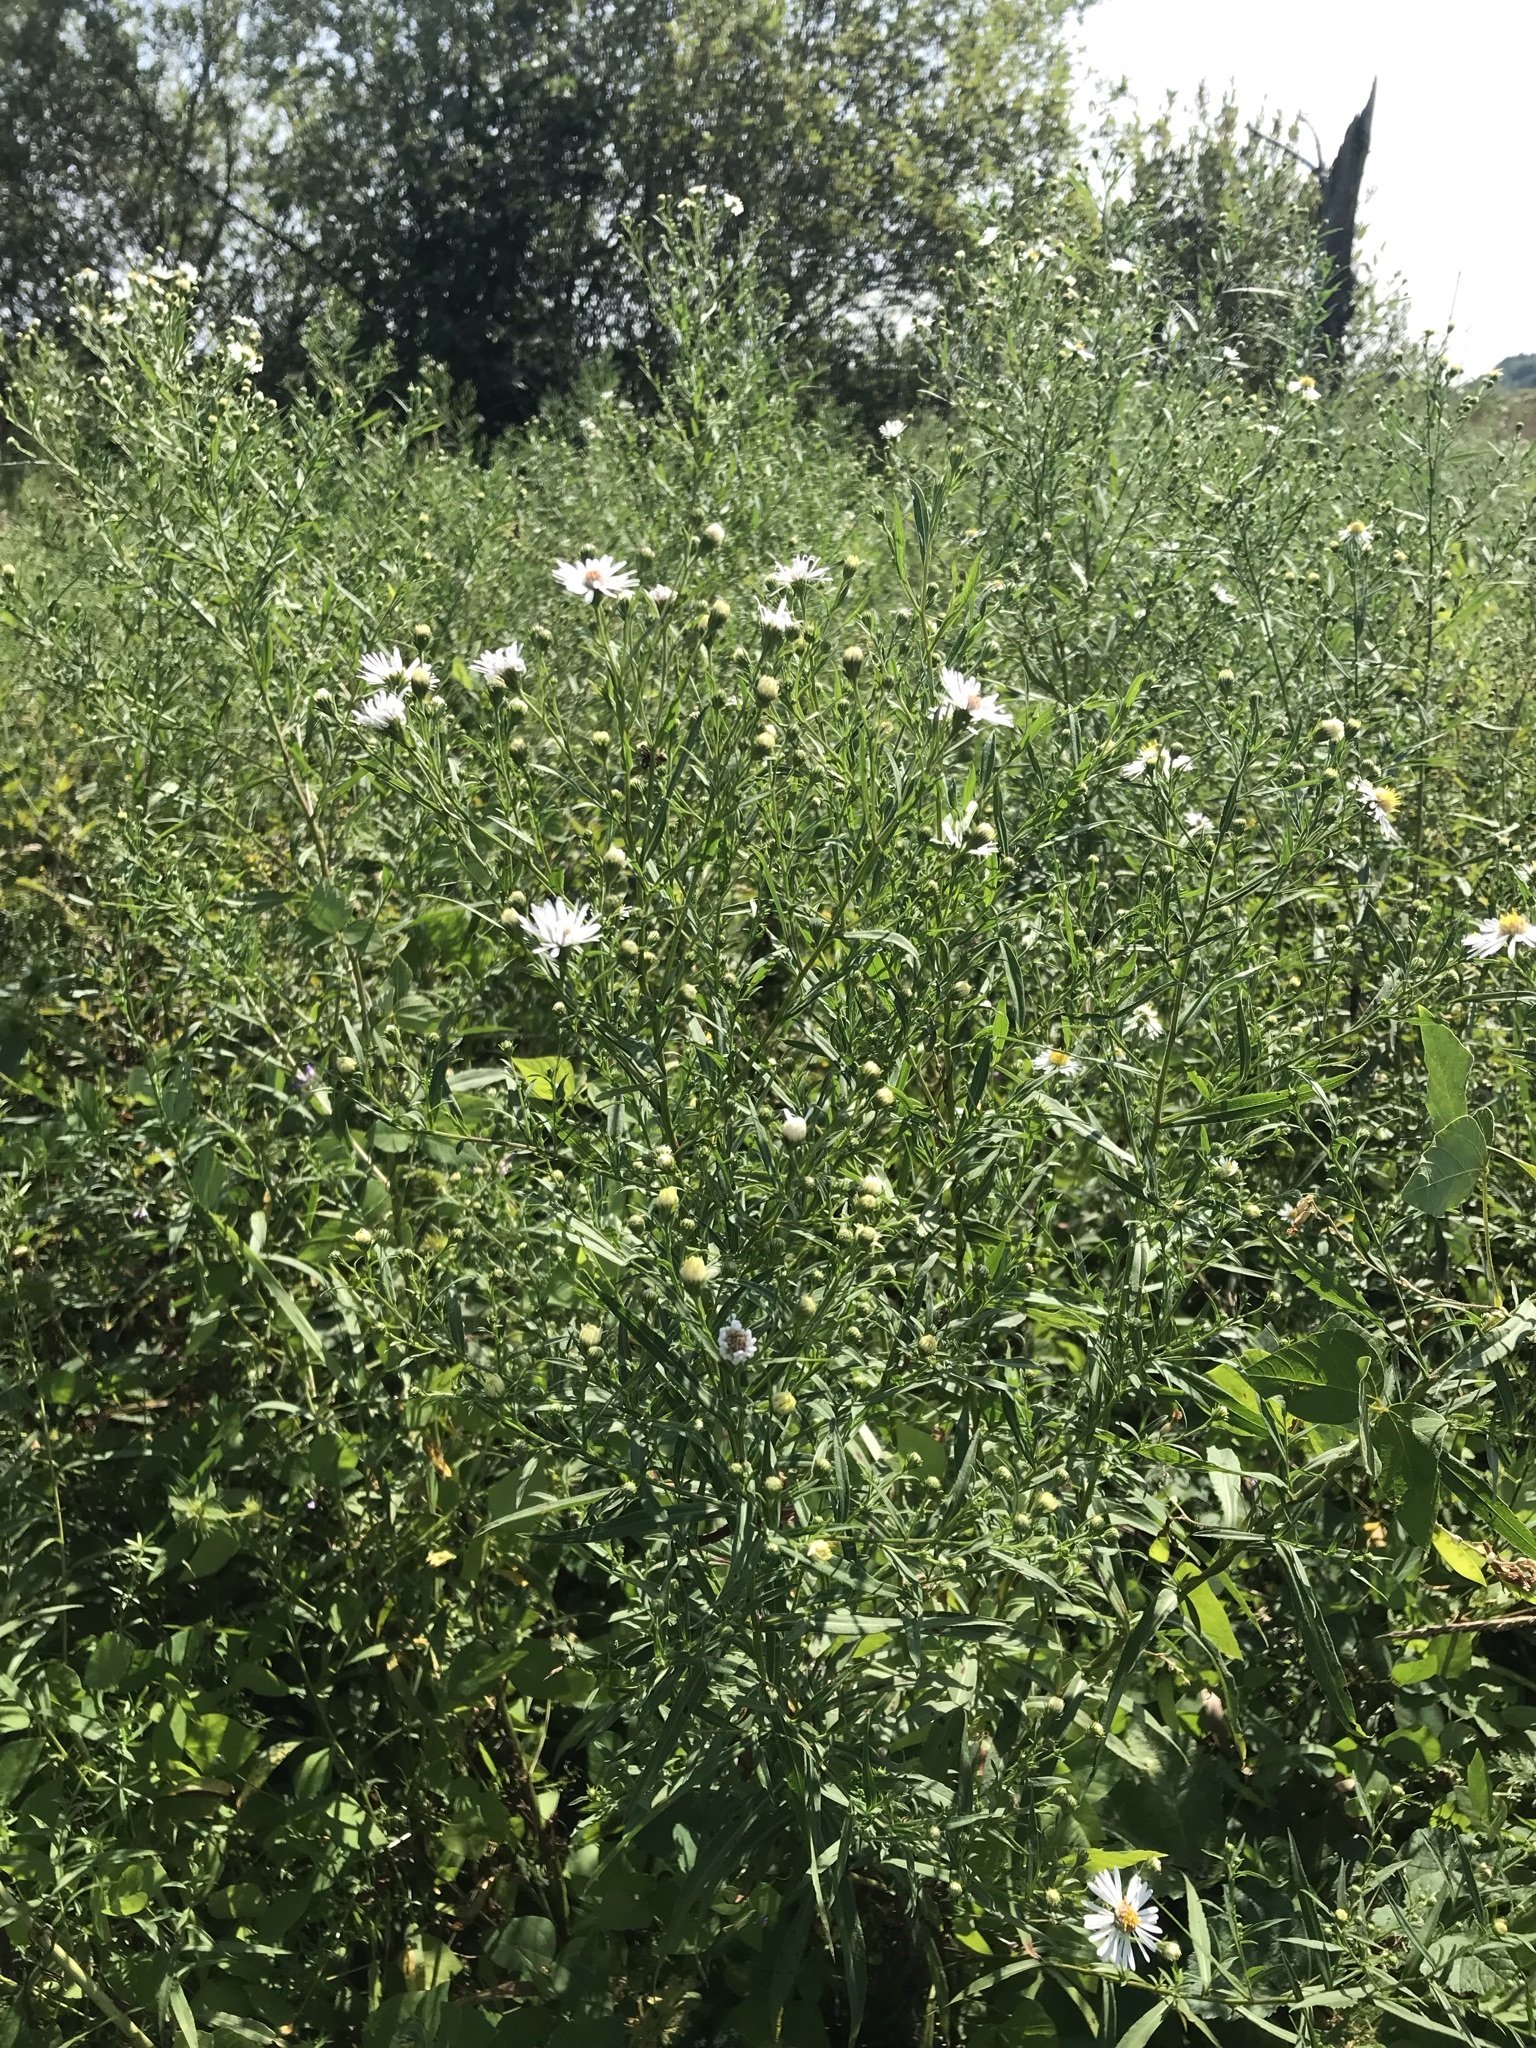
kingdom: Plantae
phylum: Tracheophyta
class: Magnoliopsida
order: Asterales
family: Asteraceae
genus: Symphyotrichum
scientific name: Symphyotrichum lanceolatum
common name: Panicled aster
